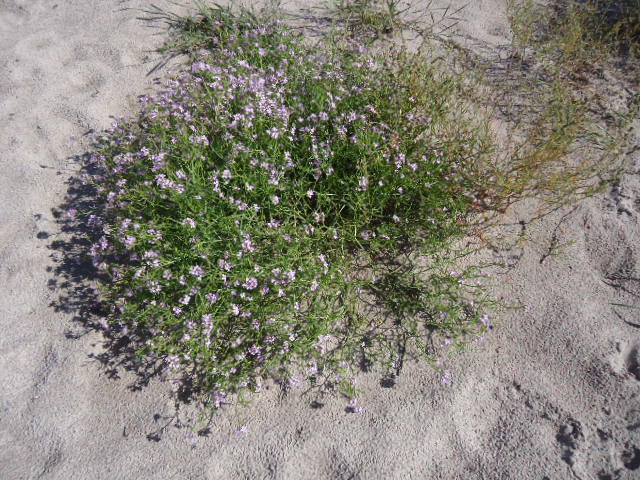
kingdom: Plantae
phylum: Tracheophyta
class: Magnoliopsida
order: Brassicales
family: Brassicaceae
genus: Cakile
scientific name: Cakile maritima
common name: Sea rocket
